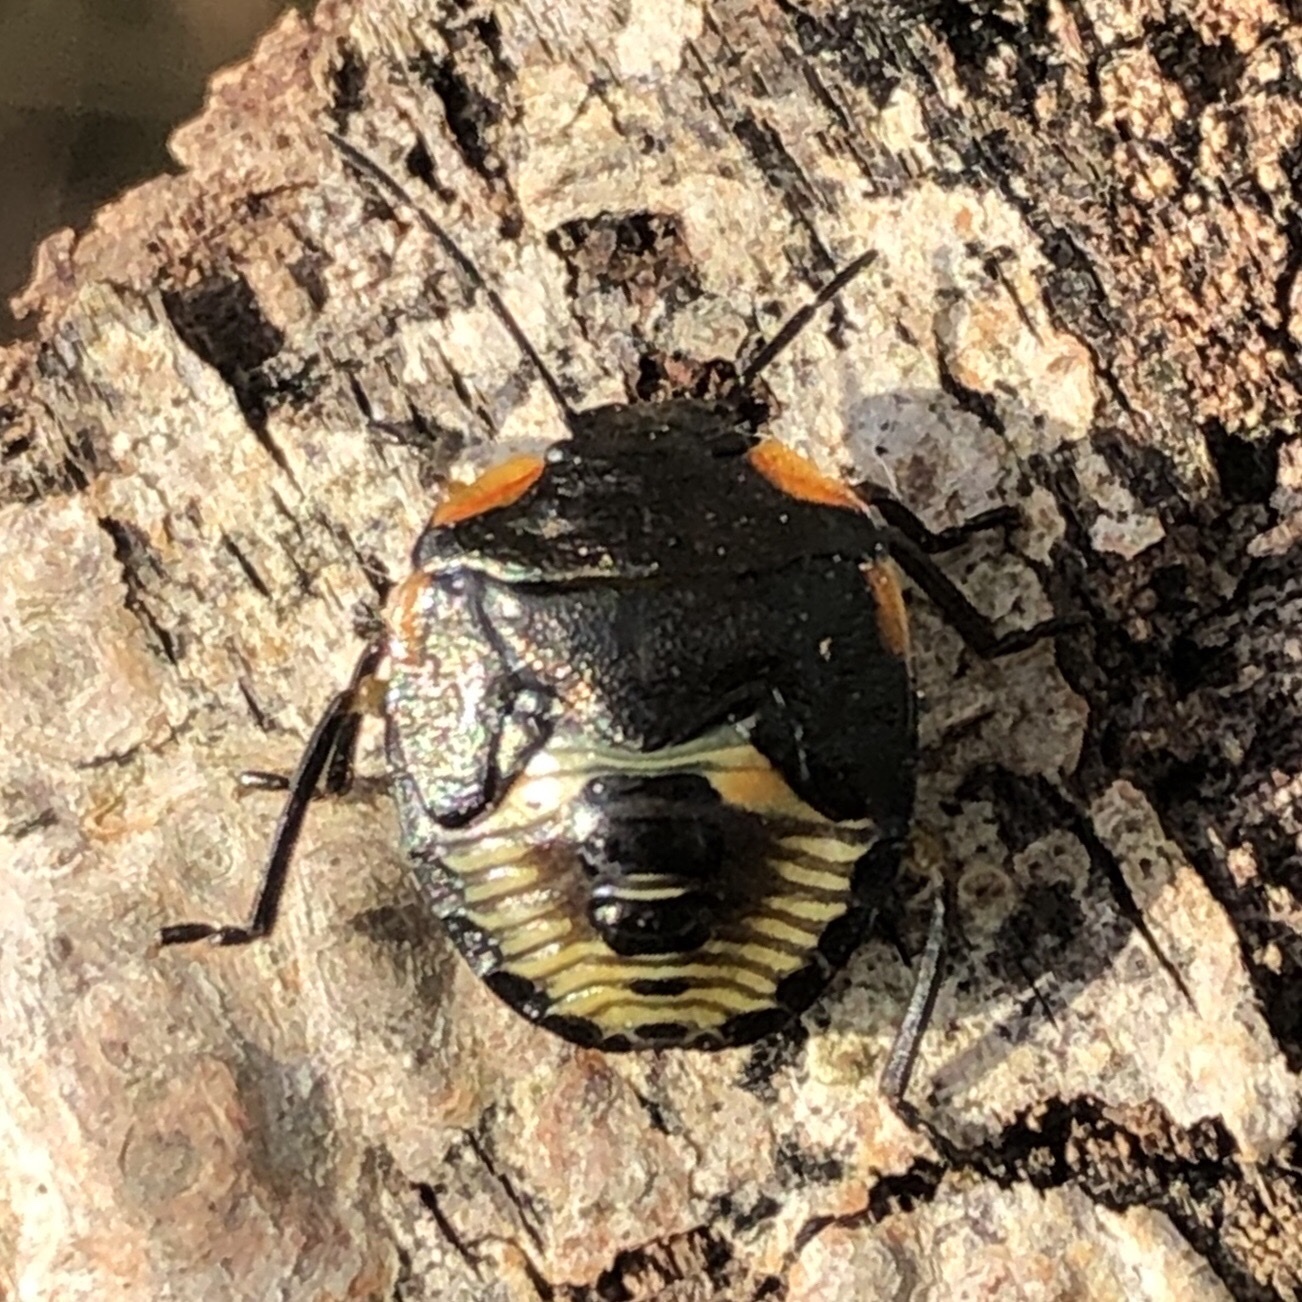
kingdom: Animalia
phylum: Arthropoda
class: Insecta
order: Hemiptera
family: Pentatomidae
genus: Chinavia
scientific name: Chinavia hilaris
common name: Green stink bug
